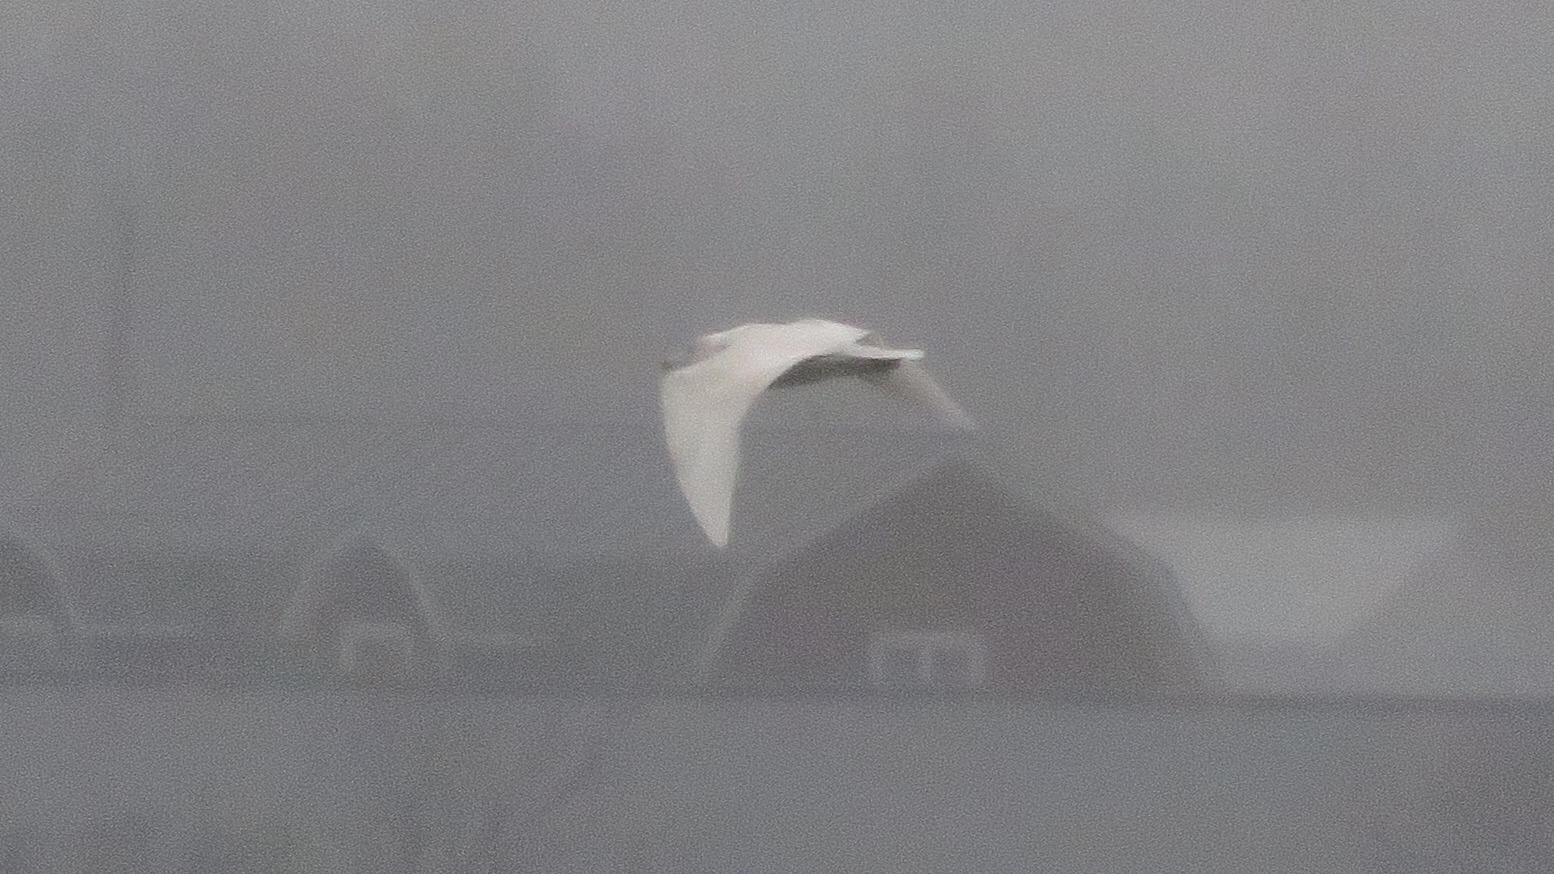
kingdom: Animalia
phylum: Chordata
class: Aves
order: Charadriiformes
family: Laridae
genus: Larus
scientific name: Larus hyperboreus
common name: Glaucous gull
